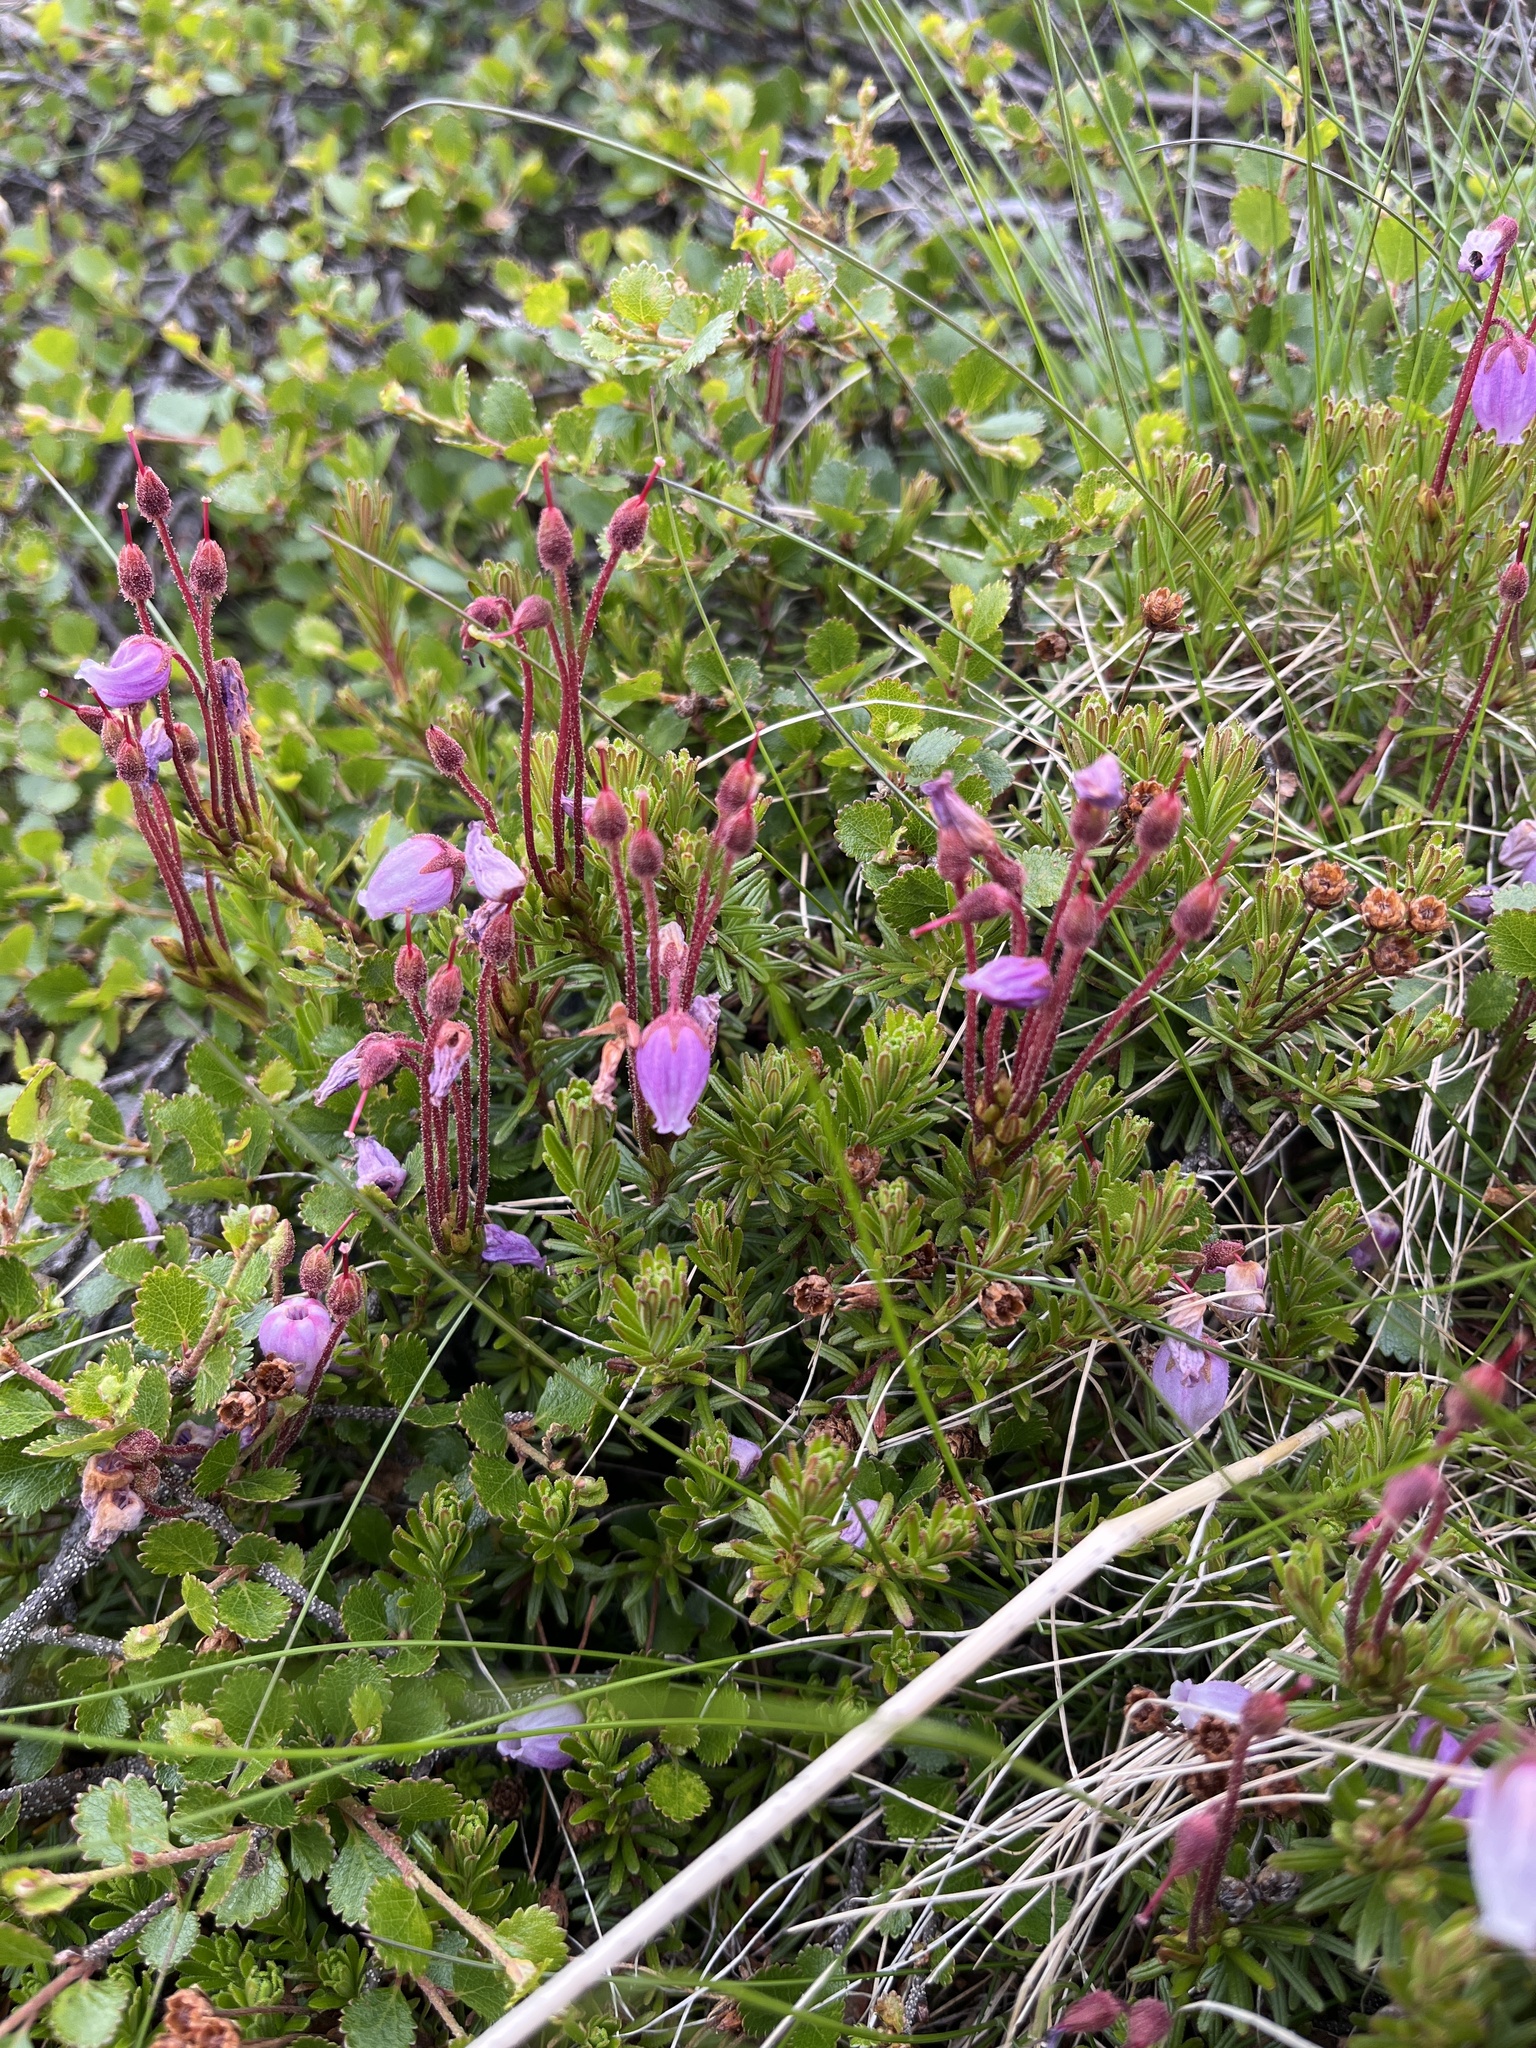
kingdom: Plantae
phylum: Tracheophyta
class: Magnoliopsida
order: Ericales
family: Ericaceae
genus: Phyllodoce
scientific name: Phyllodoce caerulea
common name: Blue heath
